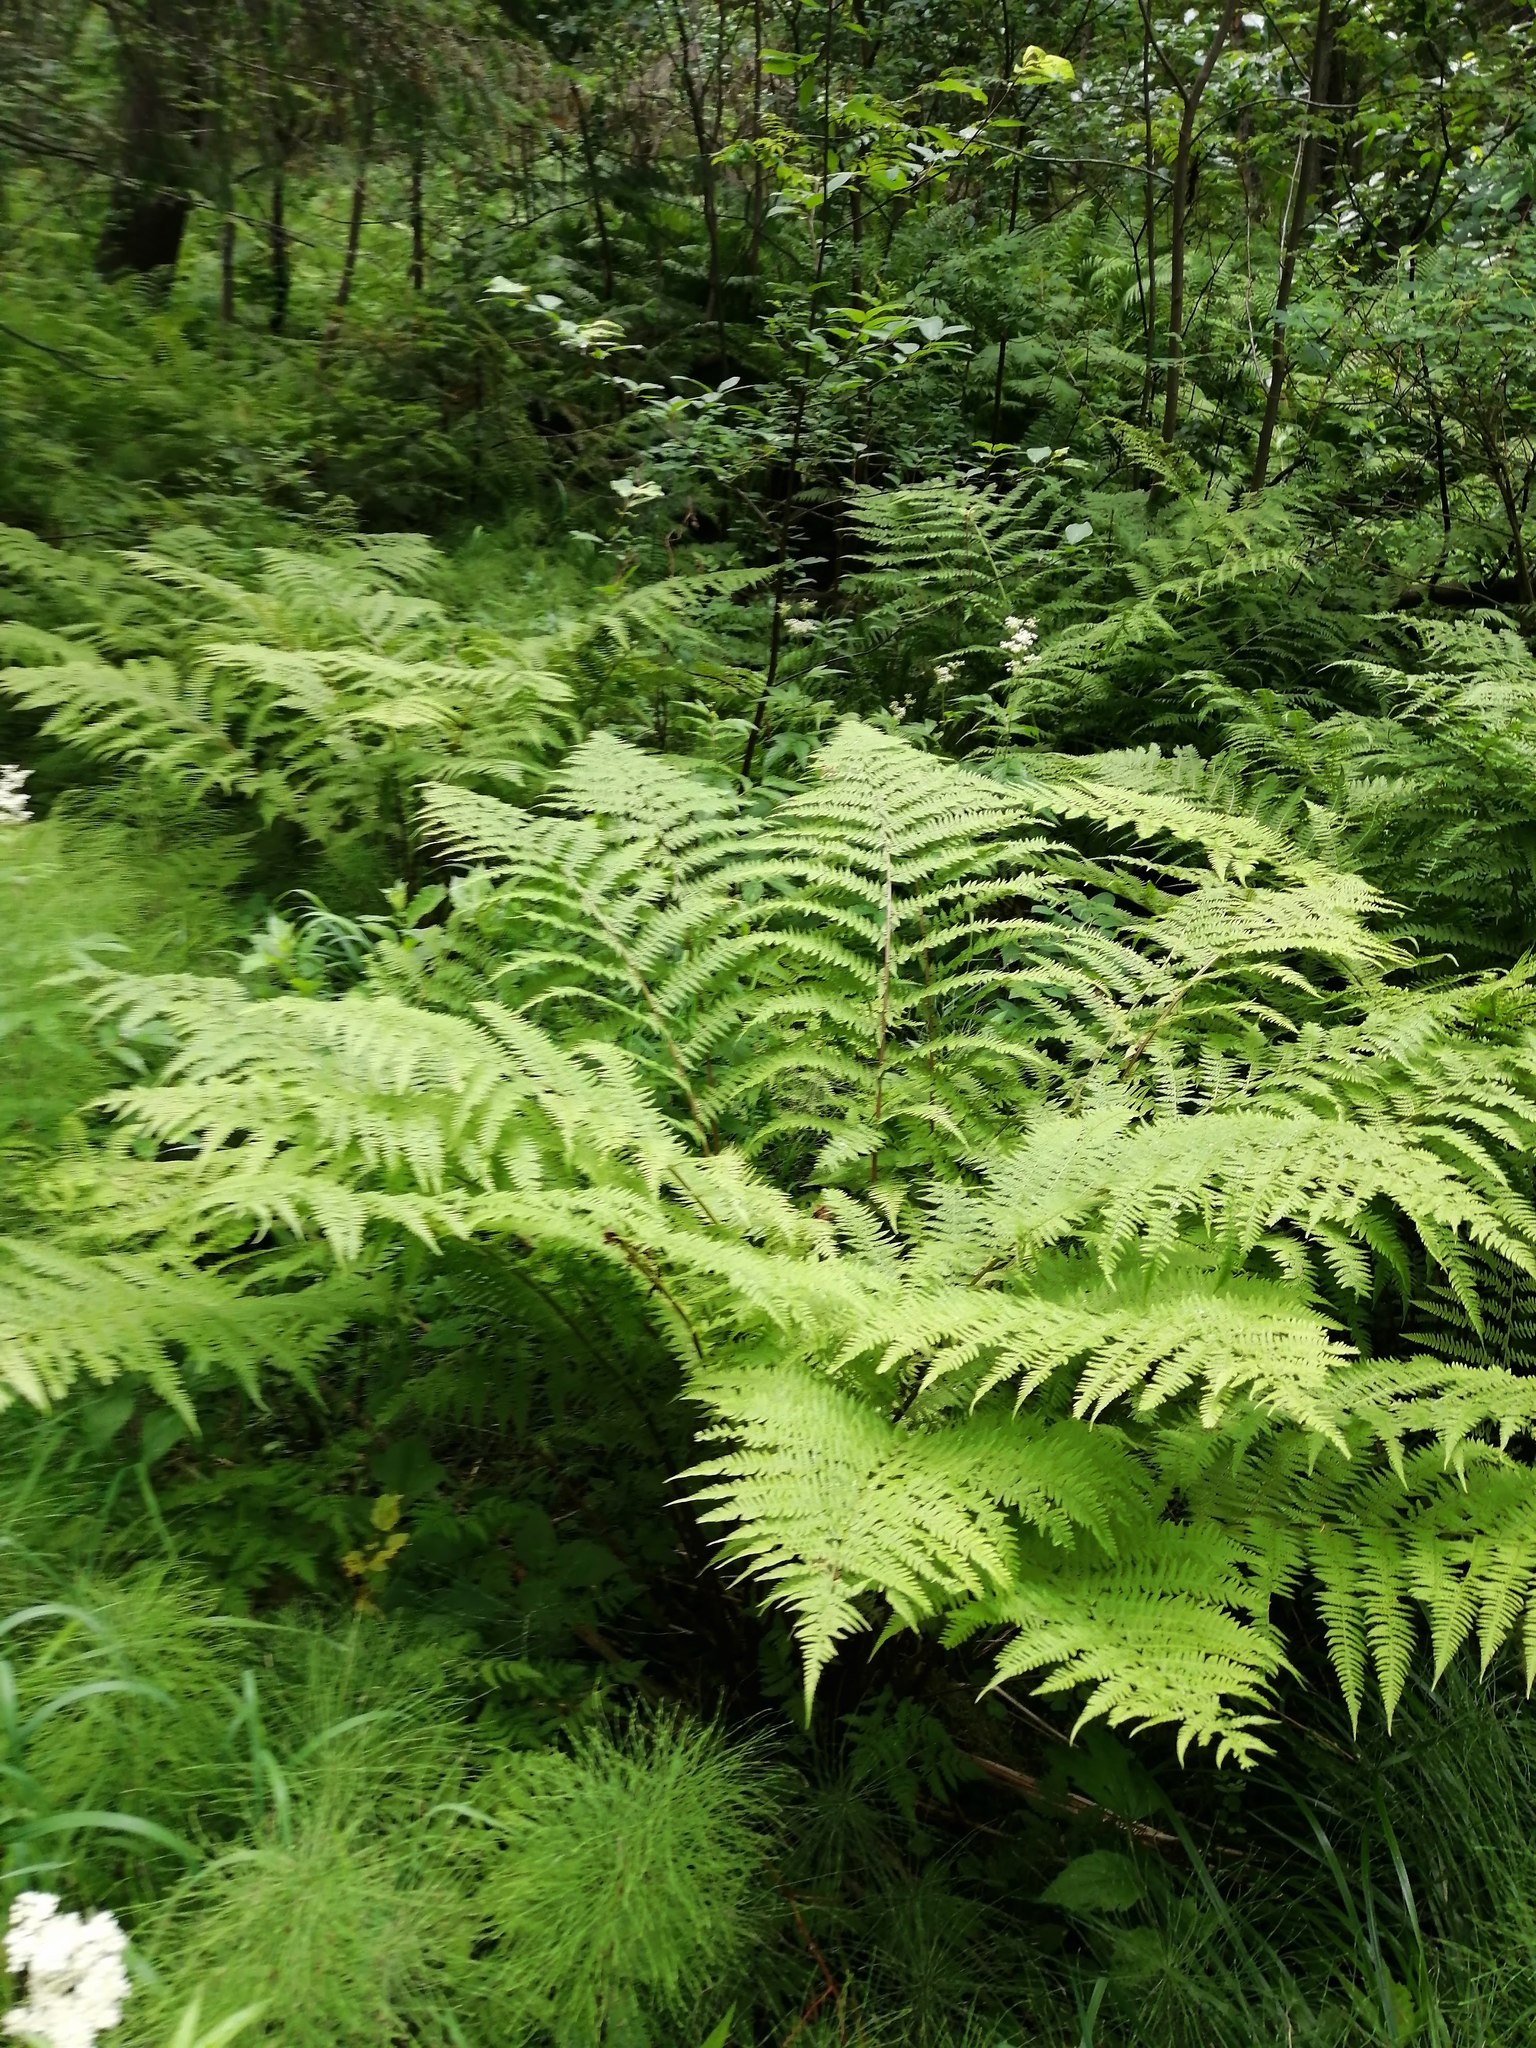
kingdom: Plantae
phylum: Tracheophyta
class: Polypodiopsida
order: Polypodiales
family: Athyriaceae
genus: Athyrium
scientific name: Athyrium filix-femina
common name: Lady fern
